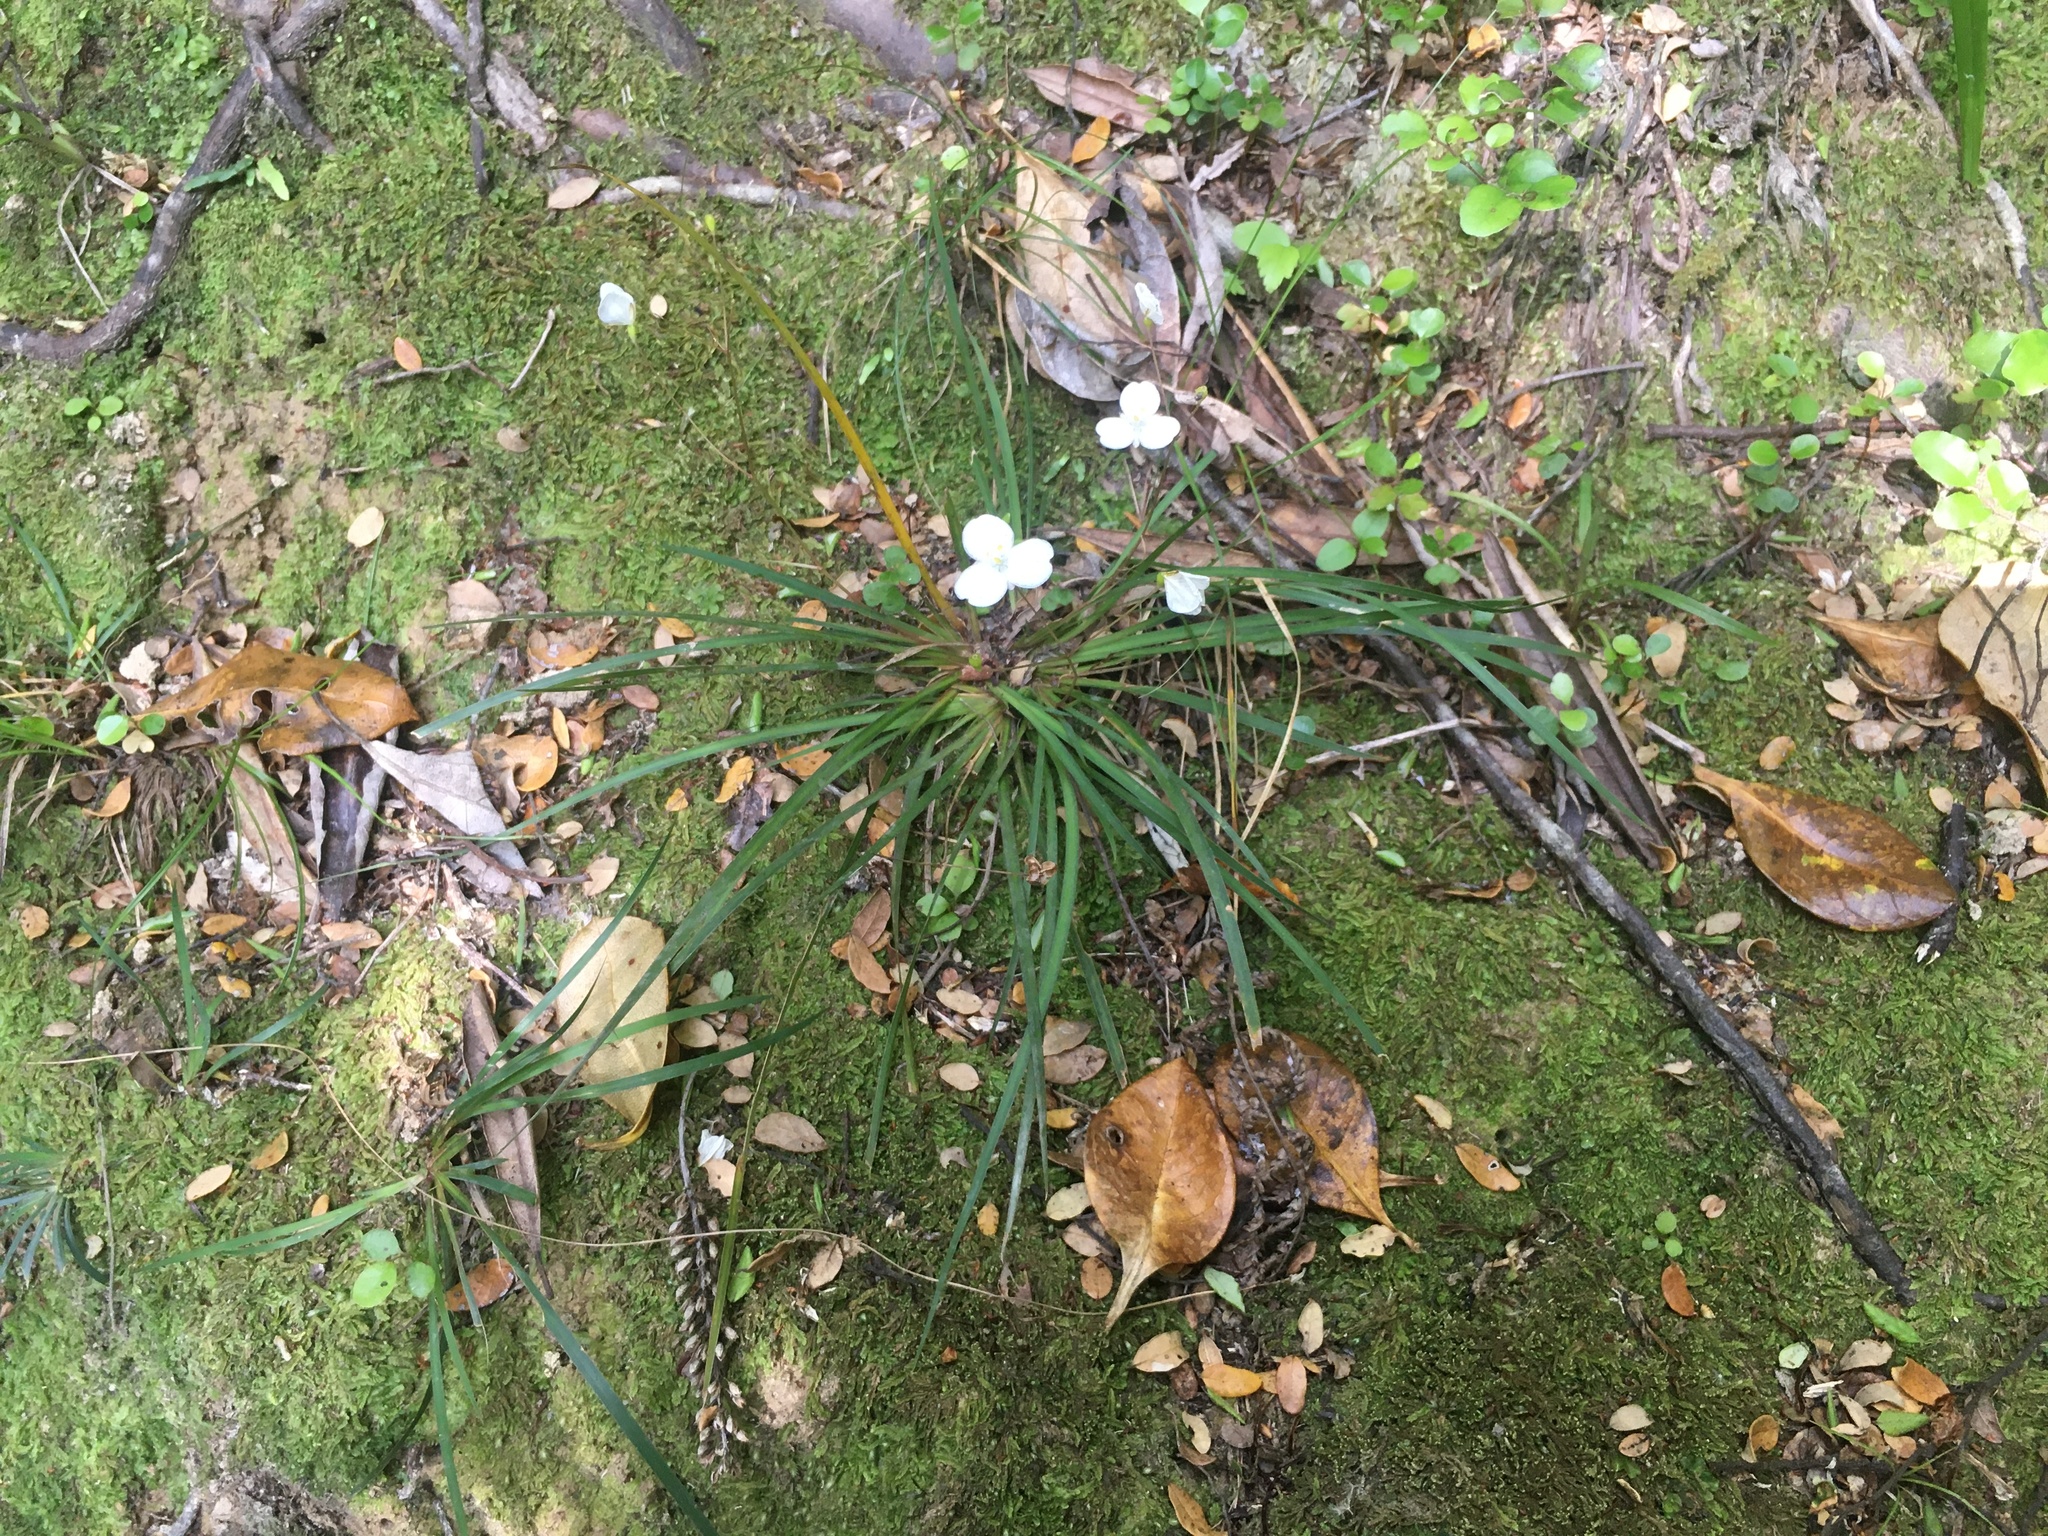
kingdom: Plantae
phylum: Tracheophyta
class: Liliopsida
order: Asparagales
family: Iridaceae
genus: Libertia
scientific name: Libertia edgariae
